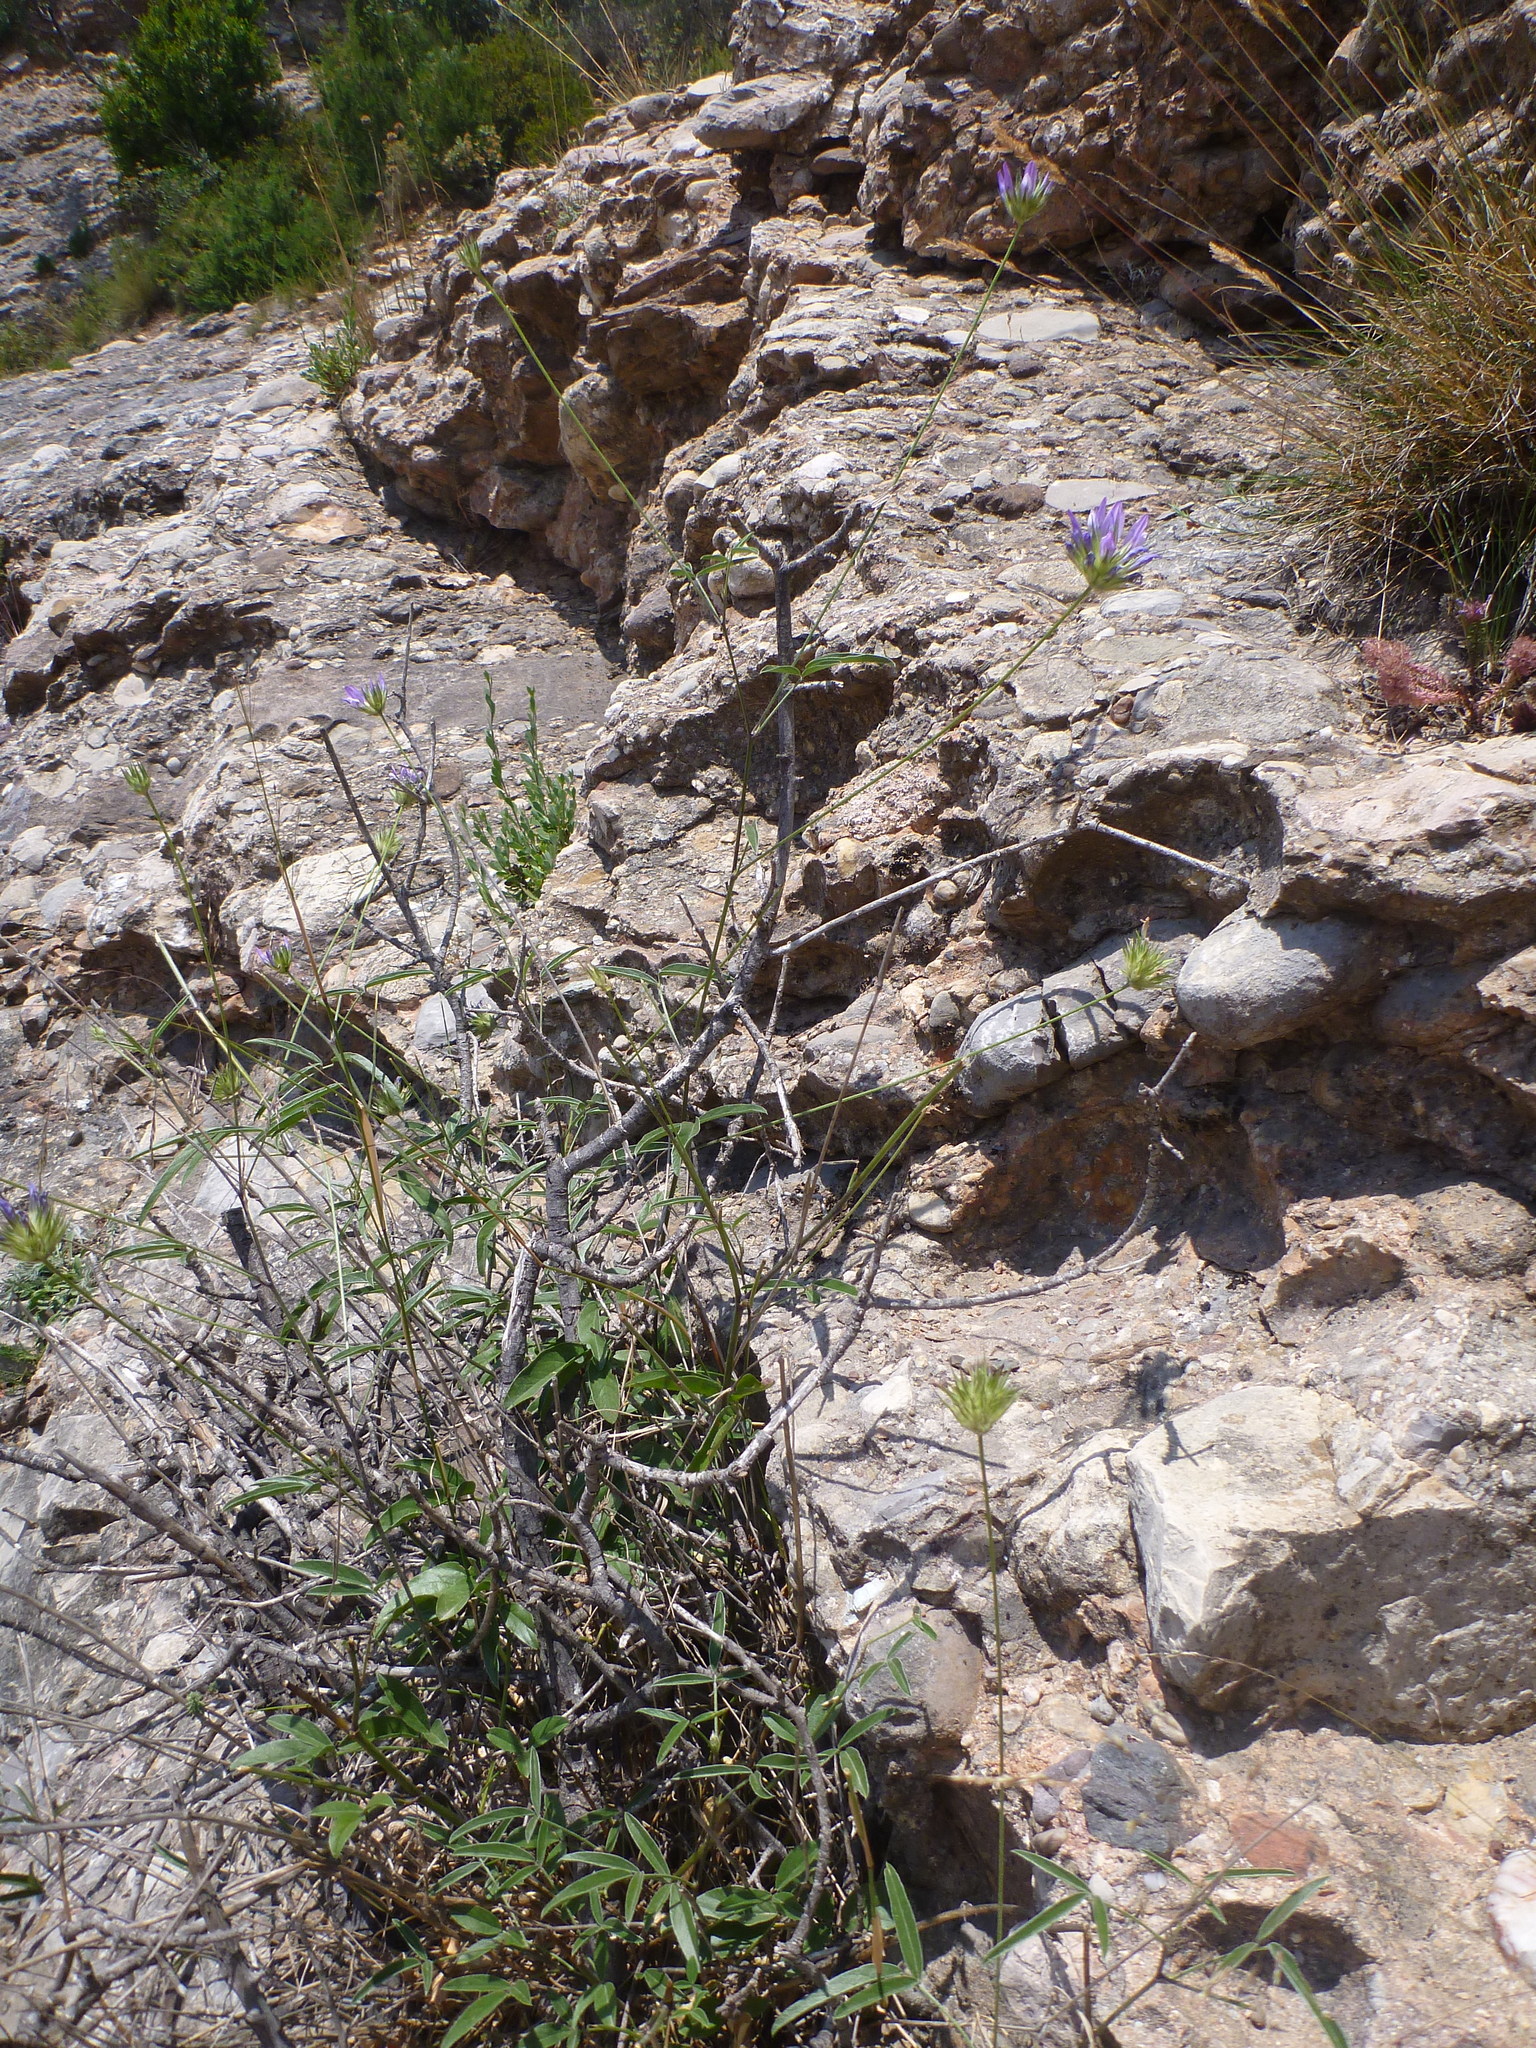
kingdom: Plantae
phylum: Tracheophyta
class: Magnoliopsida
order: Fabales
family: Fabaceae
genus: Bituminaria
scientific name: Bituminaria bituminosa
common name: Arabian pea
